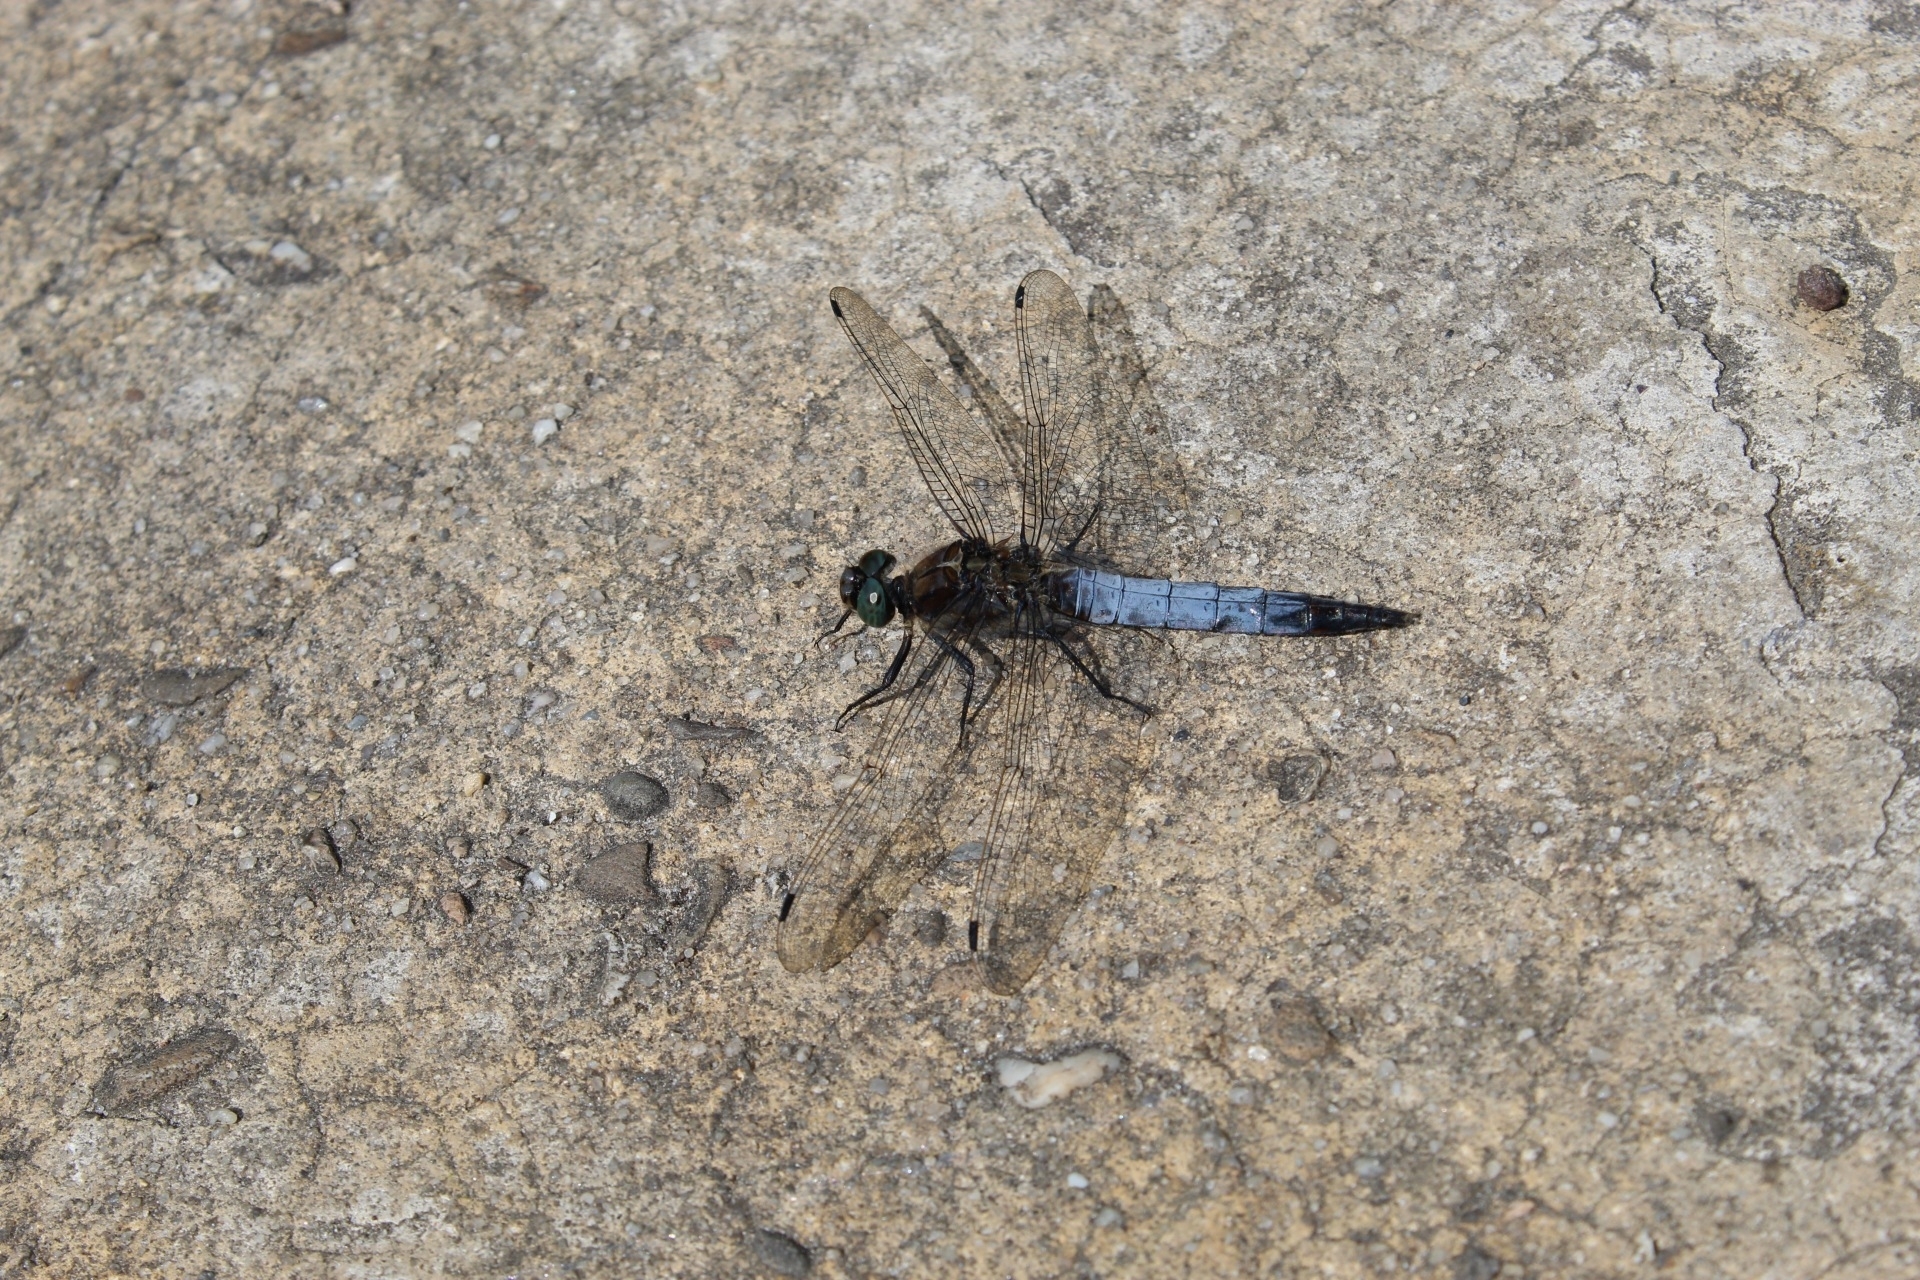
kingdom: Animalia
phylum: Arthropoda
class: Insecta
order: Odonata
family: Libellulidae
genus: Orthetrum
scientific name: Orthetrum cancellatum
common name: Black-tailed skimmer
